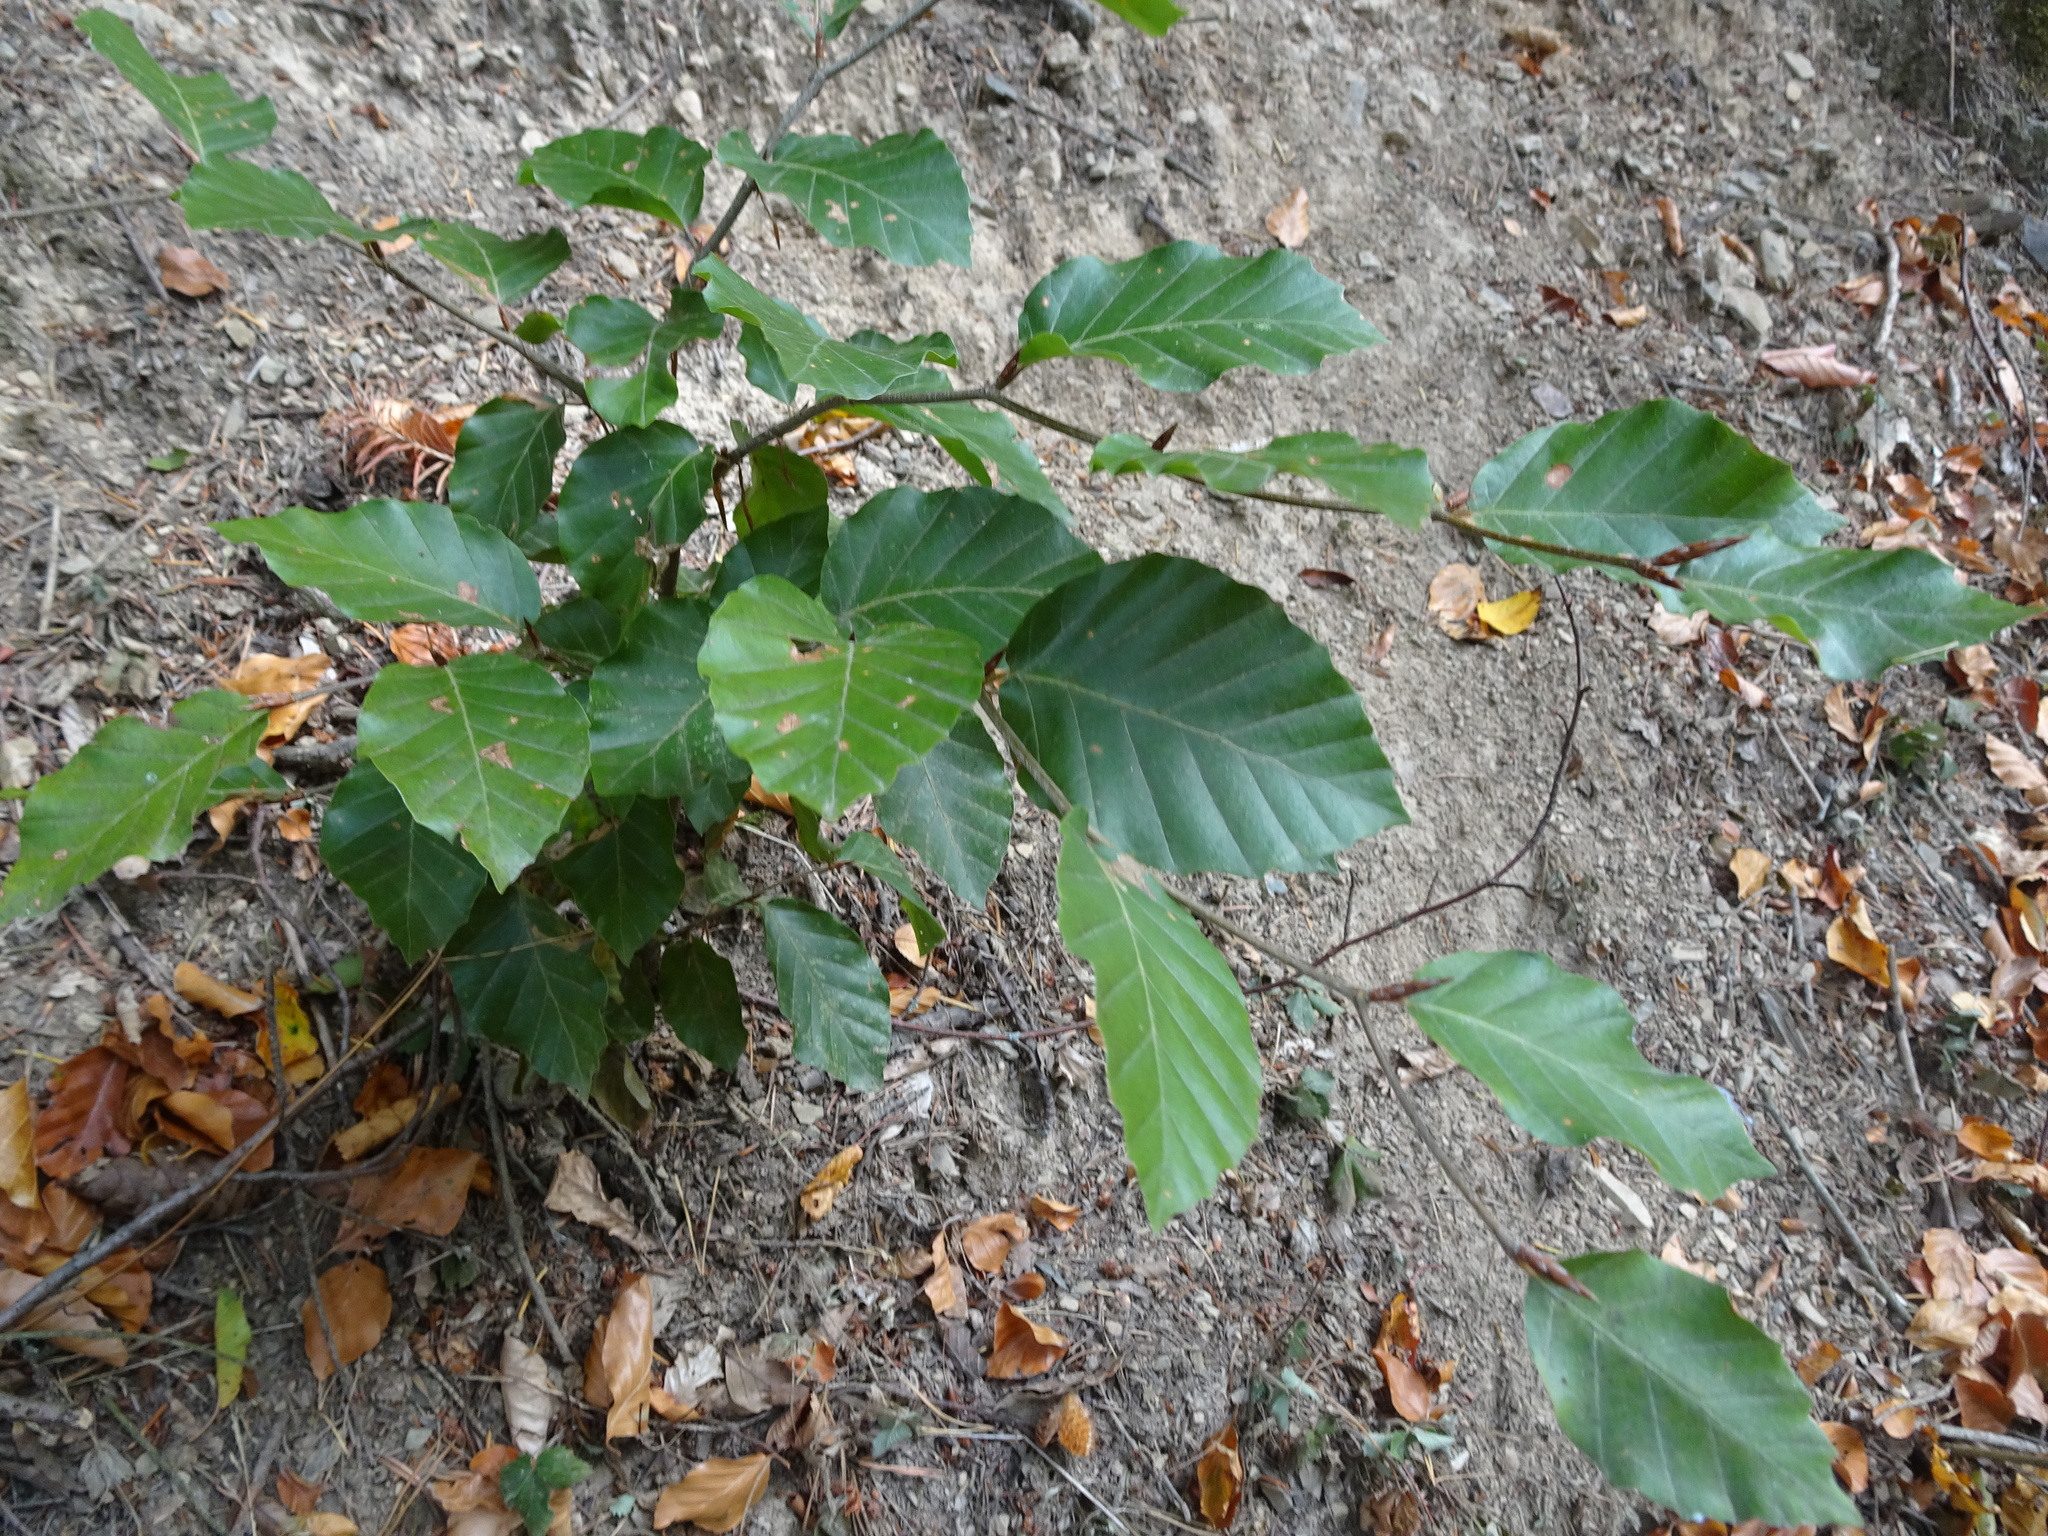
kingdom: Plantae
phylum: Tracheophyta
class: Magnoliopsida
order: Fagales
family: Fagaceae
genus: Fagus
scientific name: Fagus sylvatica
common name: Beech
